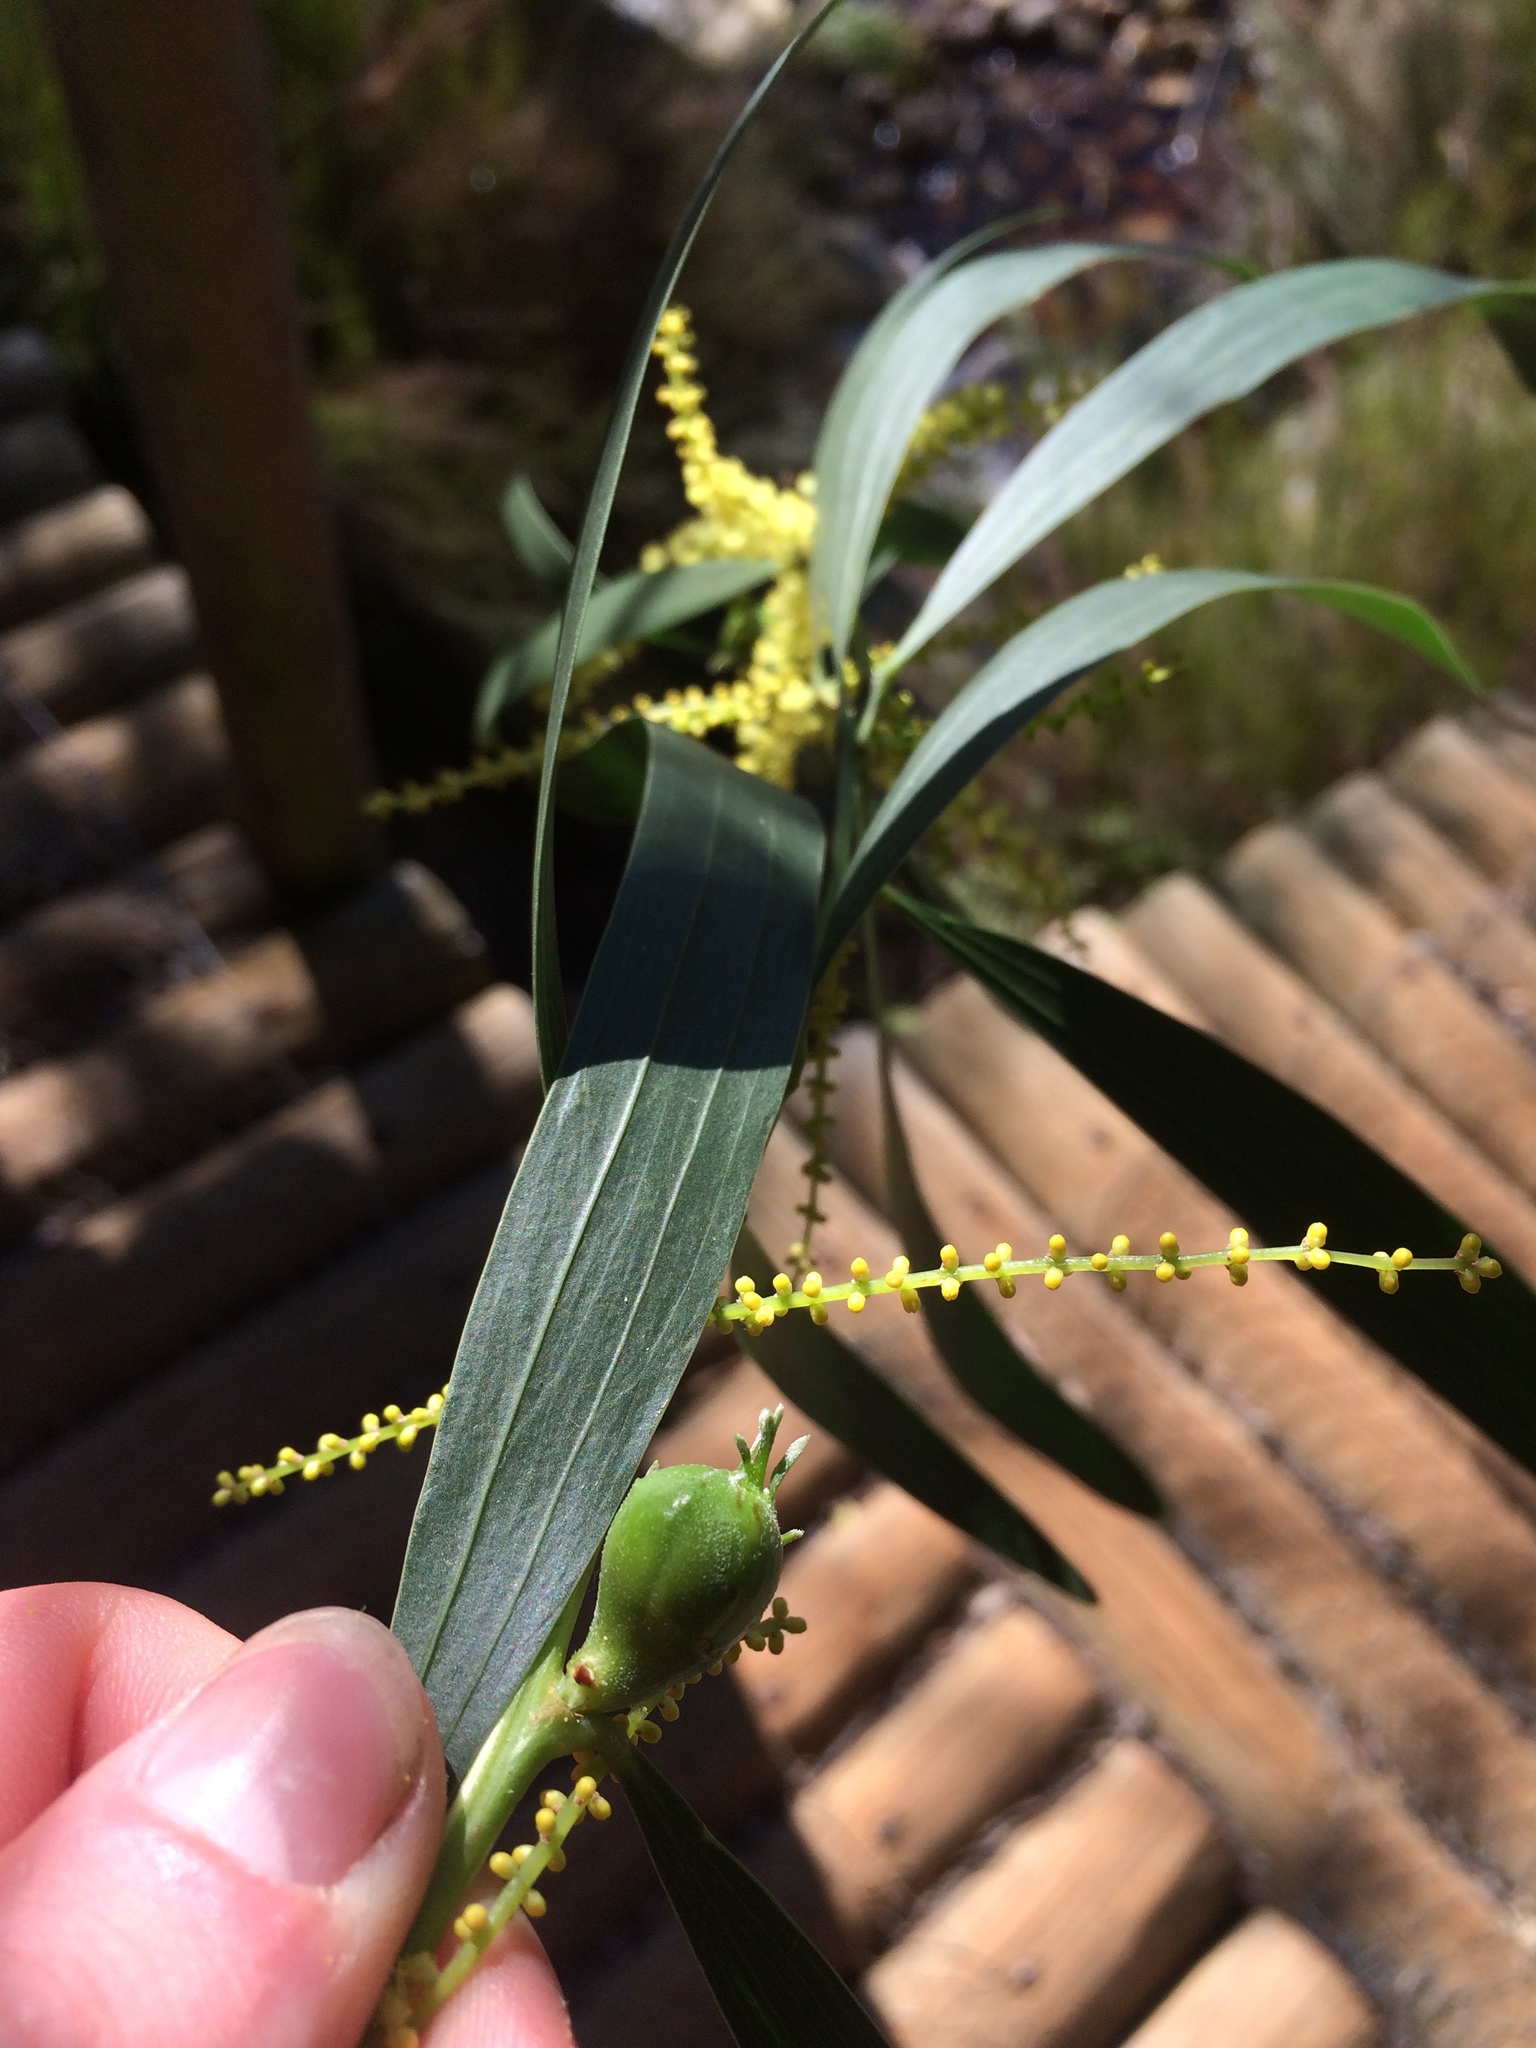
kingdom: Plantae
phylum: Tracheophyta
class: Magnoliopsida
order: Fabales
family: Fabaceae
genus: Acacia
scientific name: Acacia longifolia
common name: Sydney golden wattle
